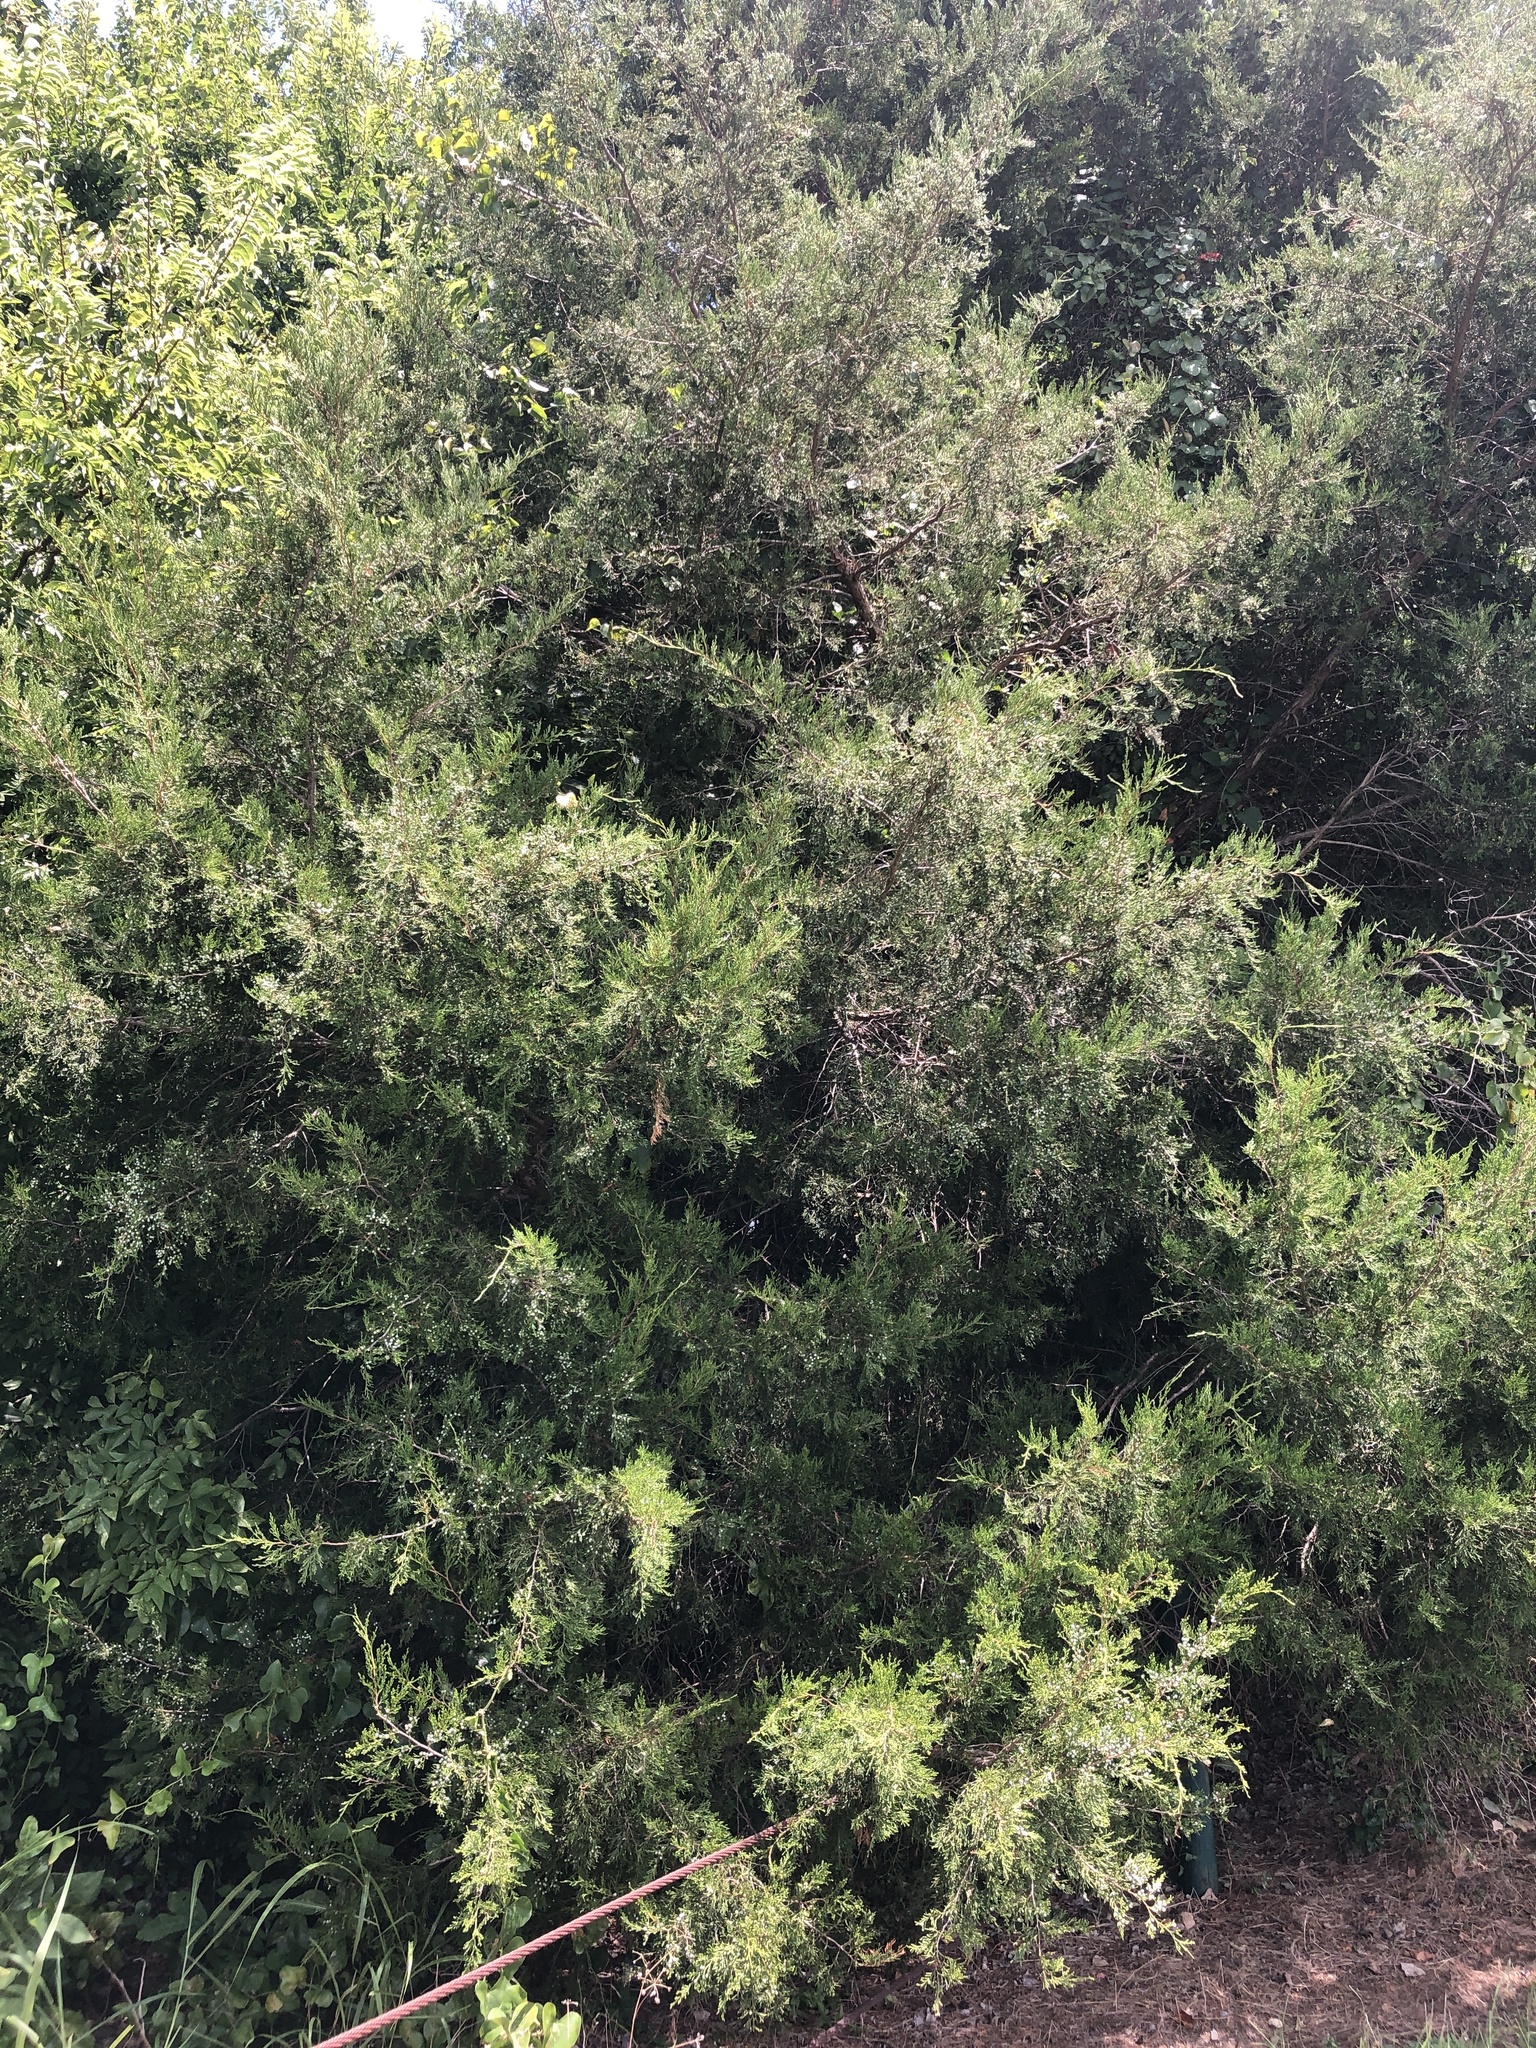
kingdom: Plantae
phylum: Tracheophyta
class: Pinopsida
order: Pinales
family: Cupressaceae
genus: Juniperus
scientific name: Juniperus virginiana
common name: Red juniper
